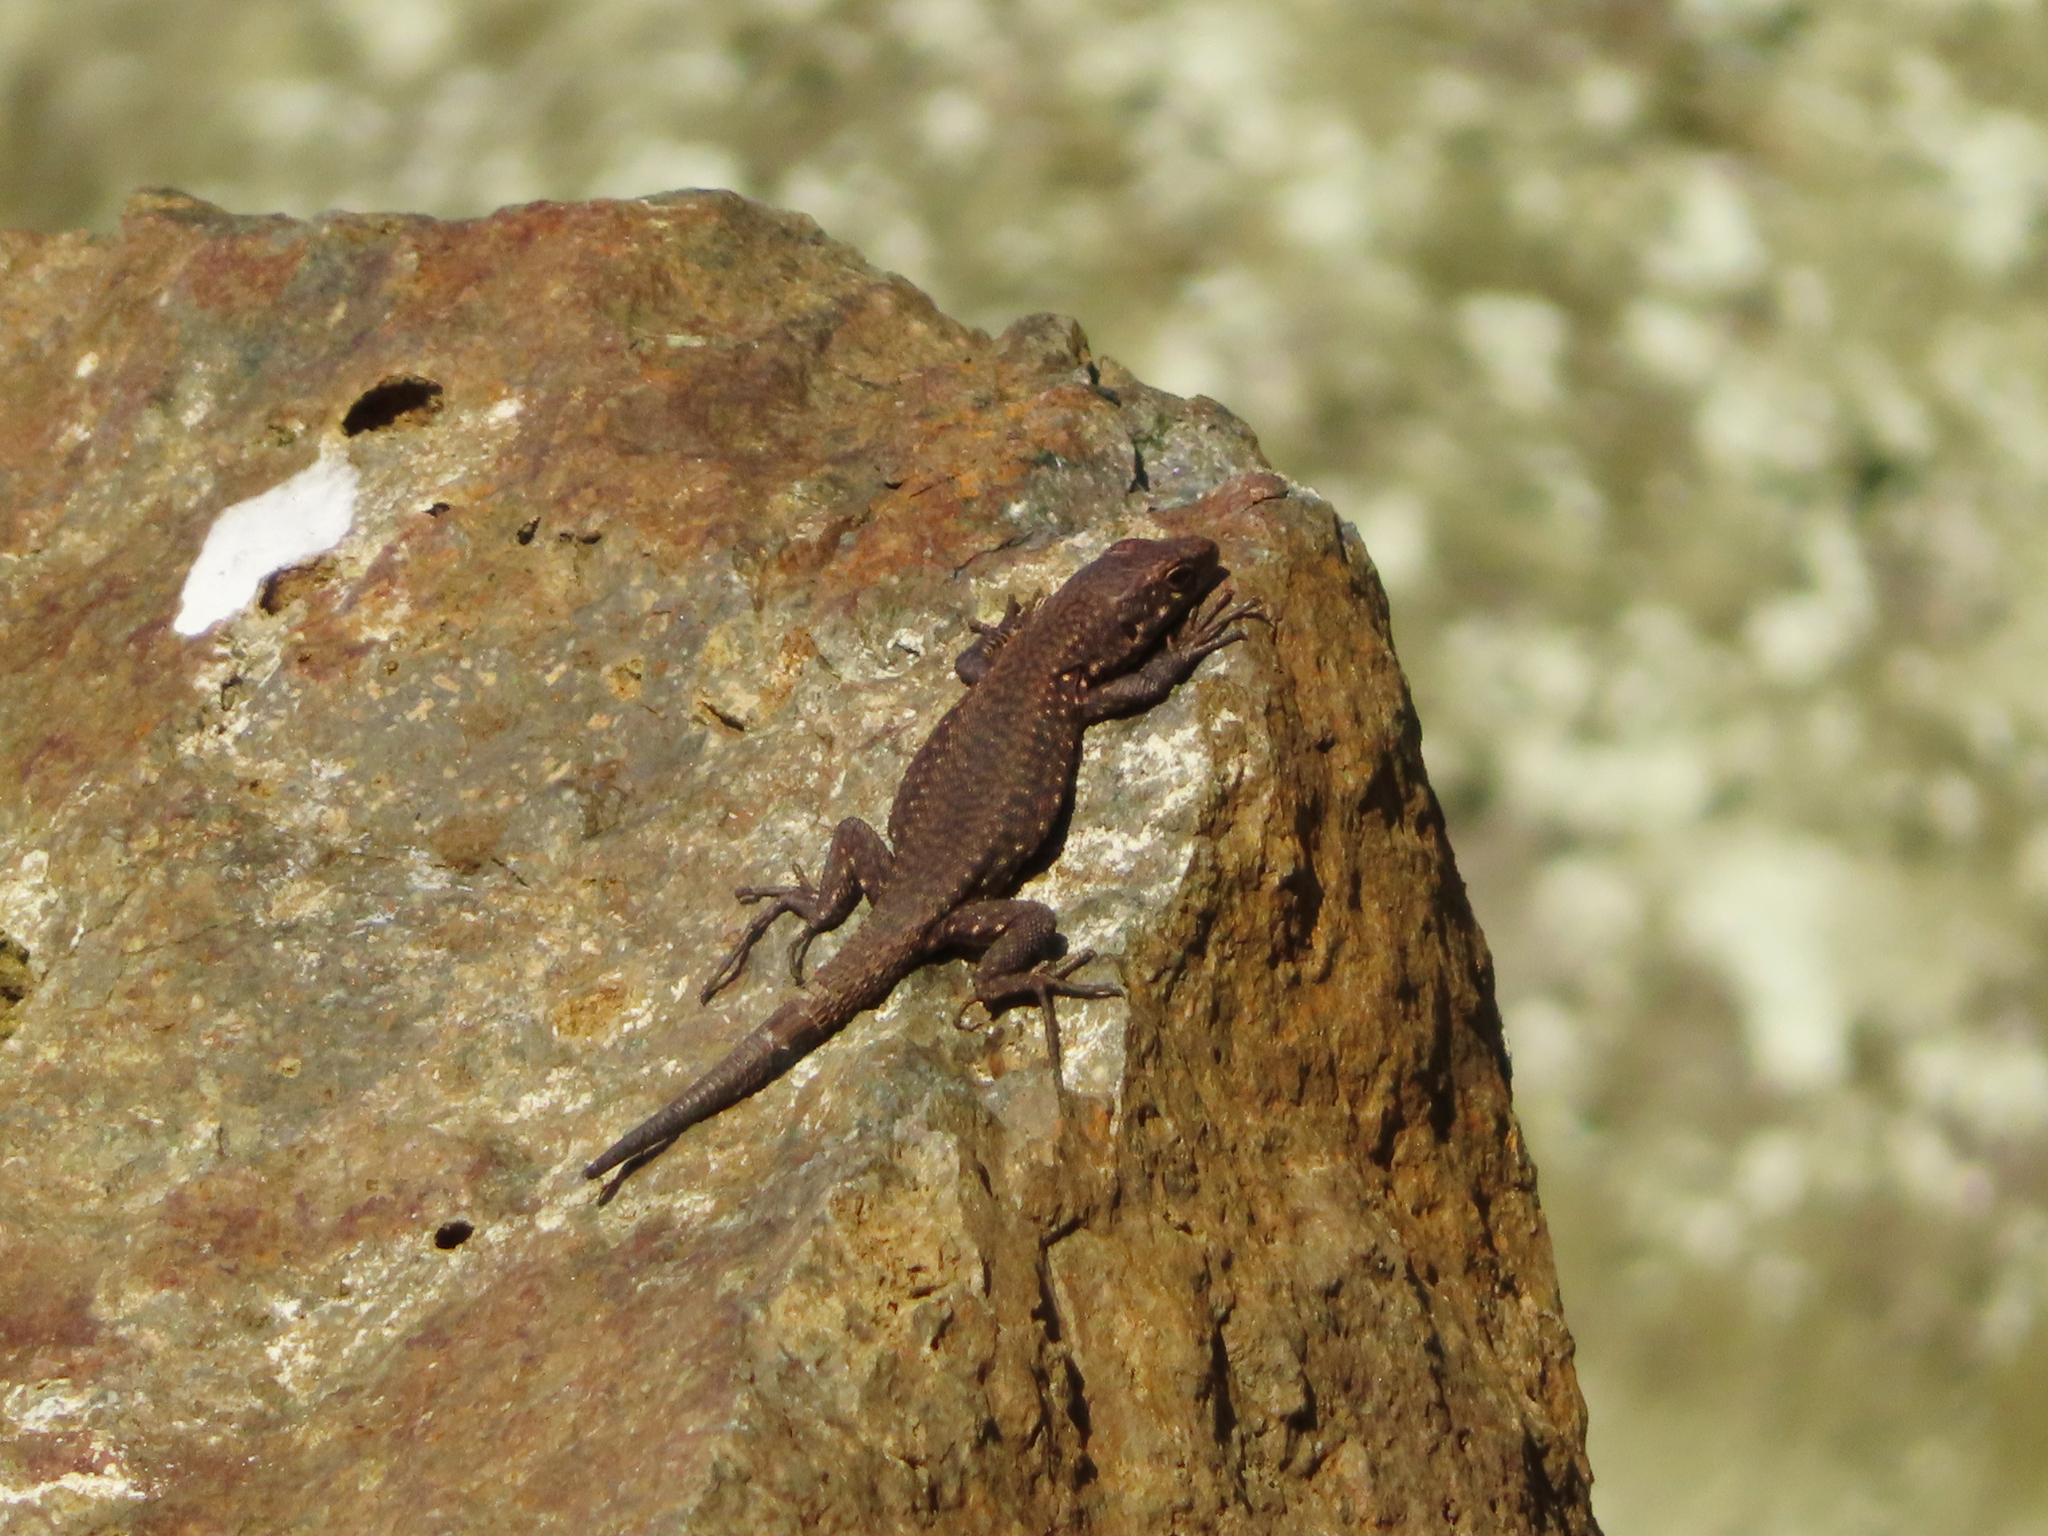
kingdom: Animalia
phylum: Chordata
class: Squamata
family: Lacertidae
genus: Darevskia
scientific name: Darevskia rudis
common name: Spiny-tailed lizard
